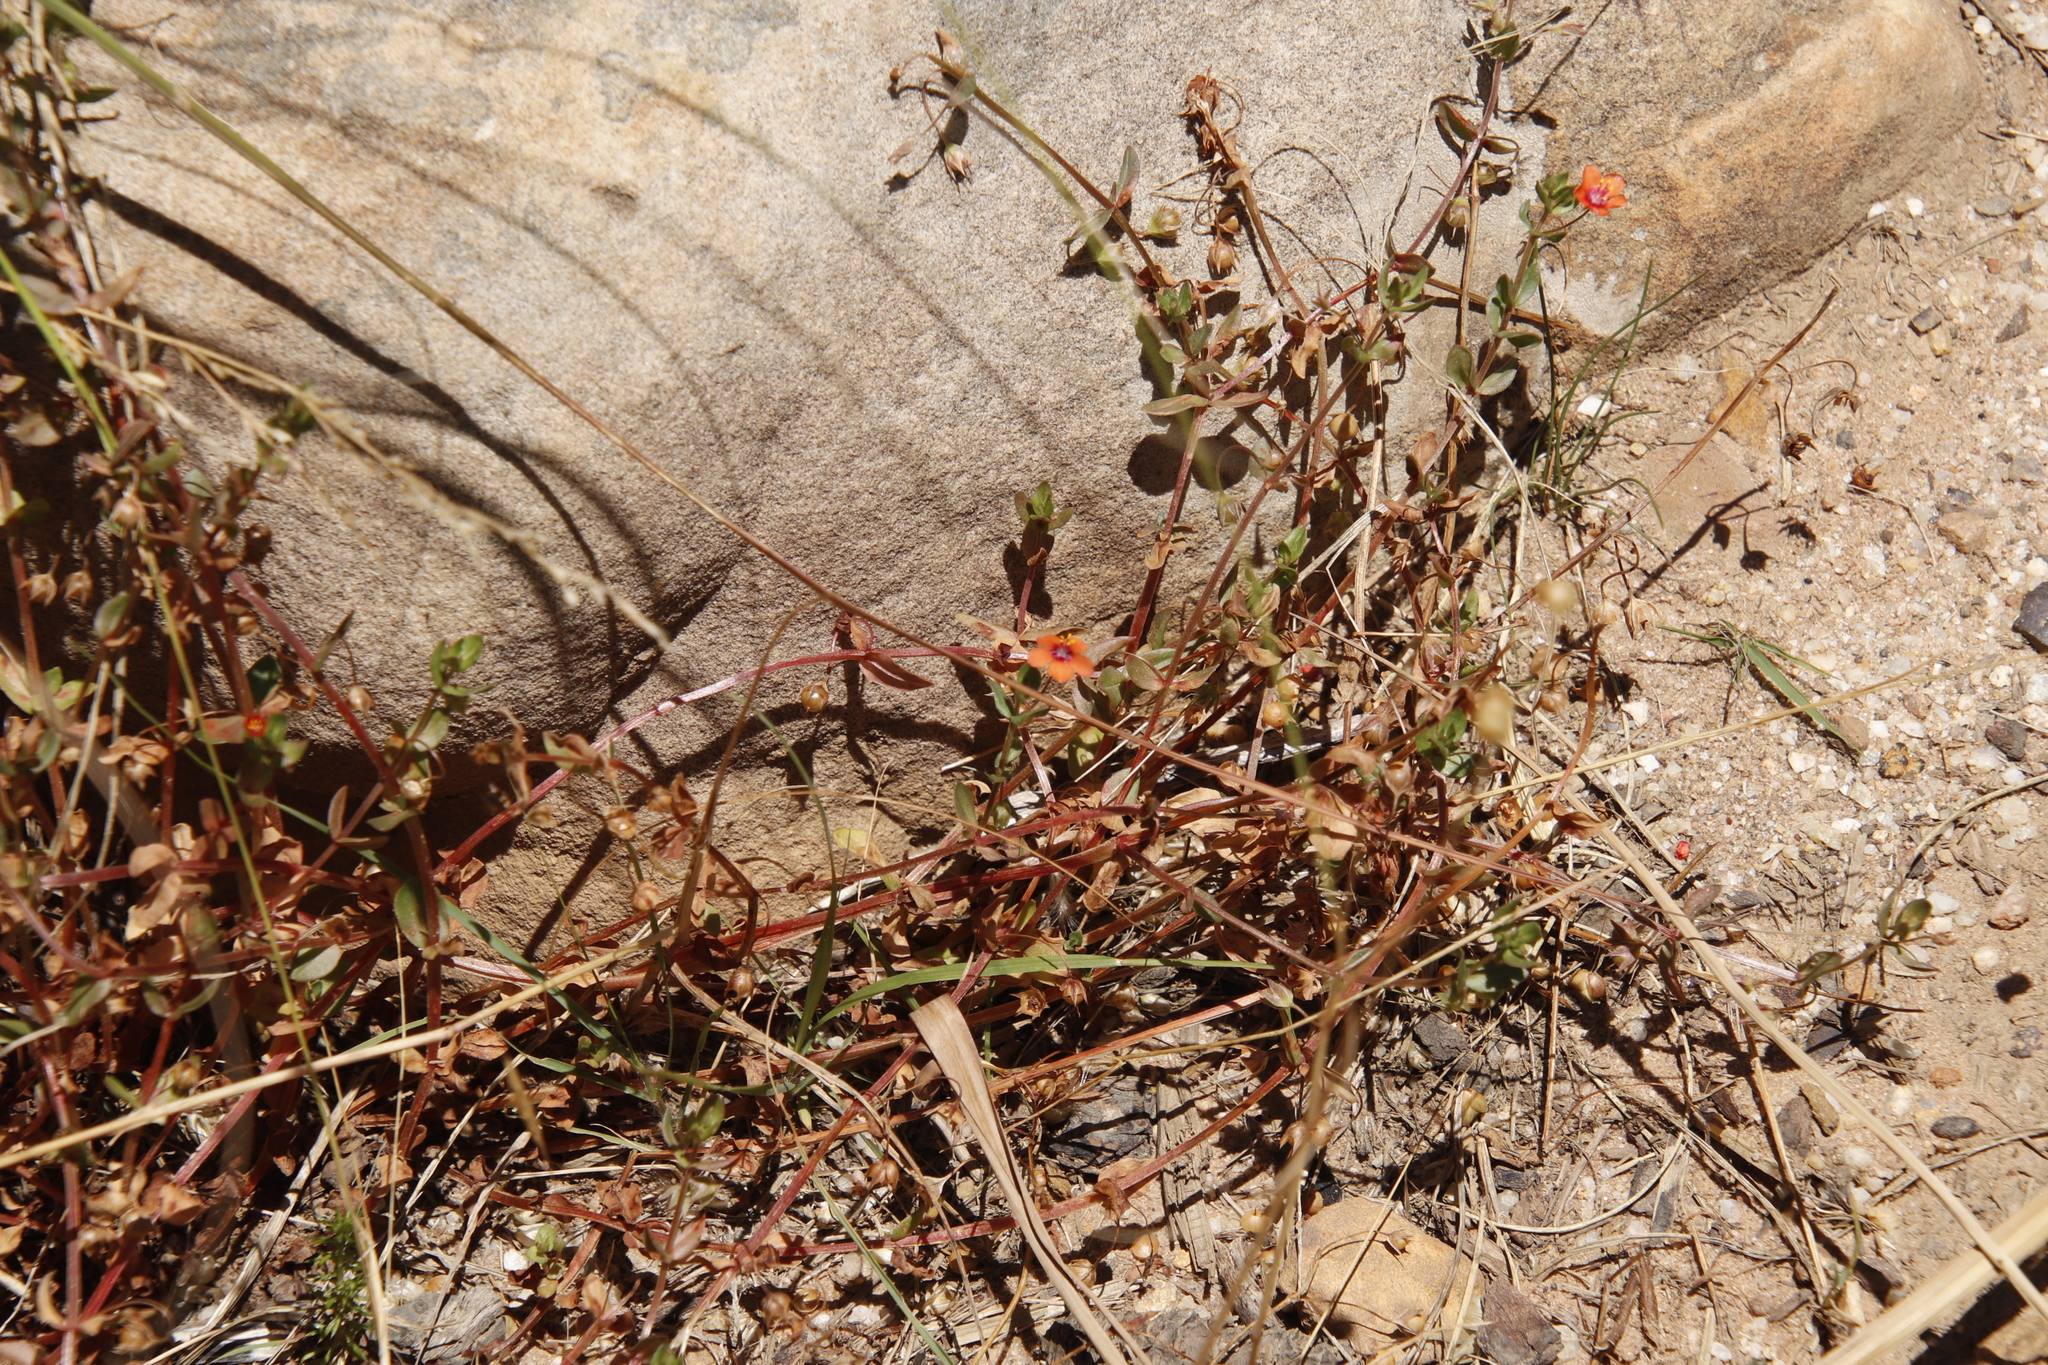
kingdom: Plantae
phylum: Tracheophyta
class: Magnoliopsida
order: Ericales
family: Primulaceae
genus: Lysimachia
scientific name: Lysimachia arvensis
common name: Scarlet pimpernel
